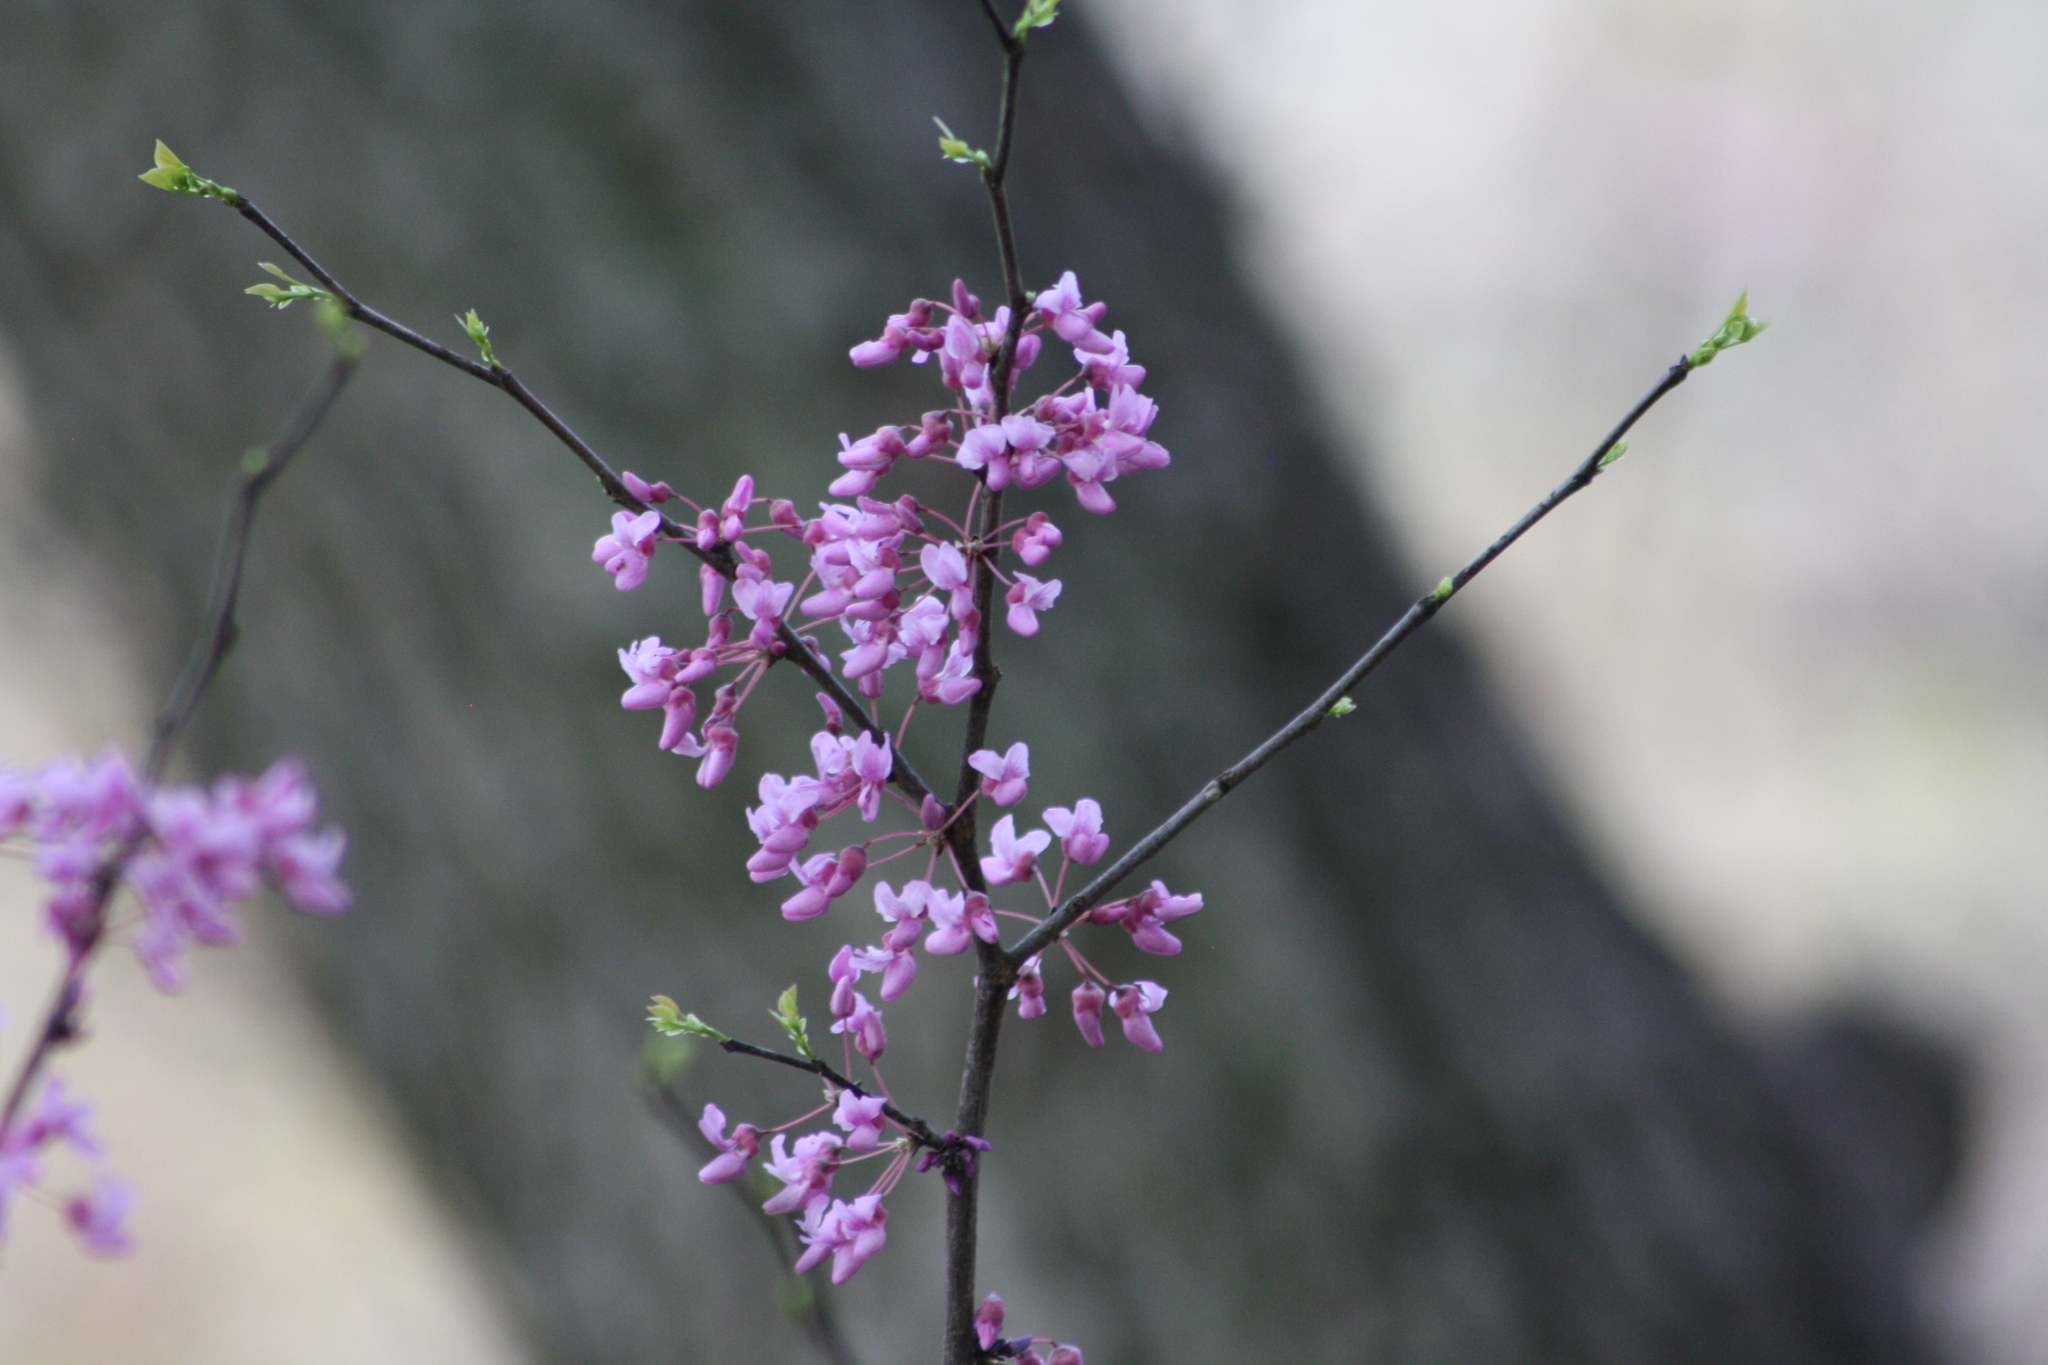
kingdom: Plantae
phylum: Tracheophyta
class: Magnoliopsida
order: Fabales
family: Fabaceae
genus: Cercis
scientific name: Cercis canadensis
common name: Eastern redbud
